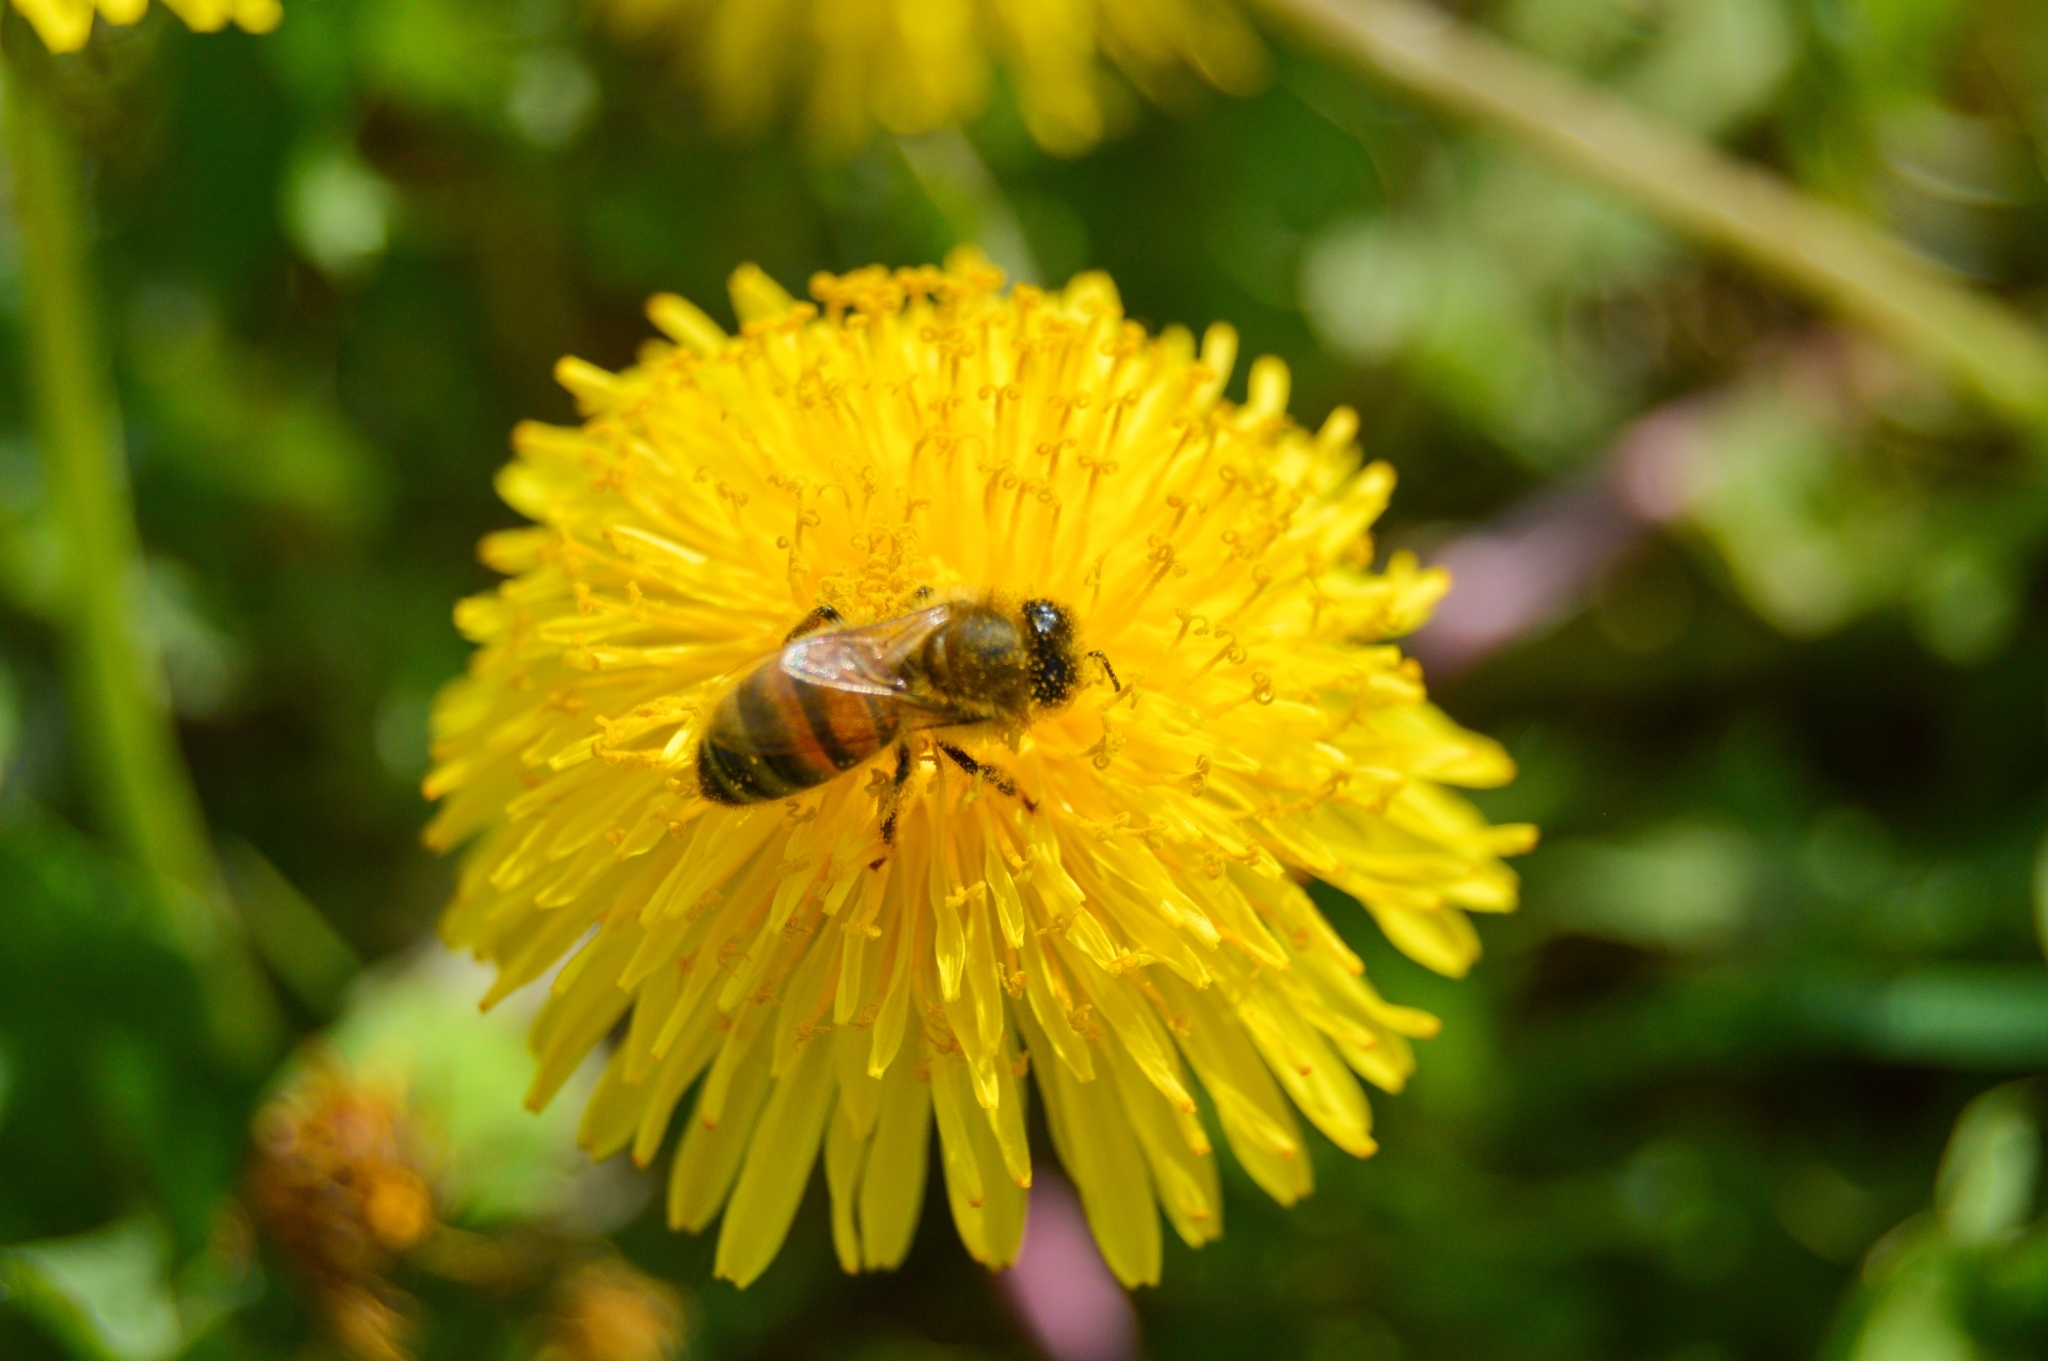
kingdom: Animalia
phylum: Arthropoda
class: Insecta
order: Hymenoptera
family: Apidae
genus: Apis
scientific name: Apis mellifera
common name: Honey bee
